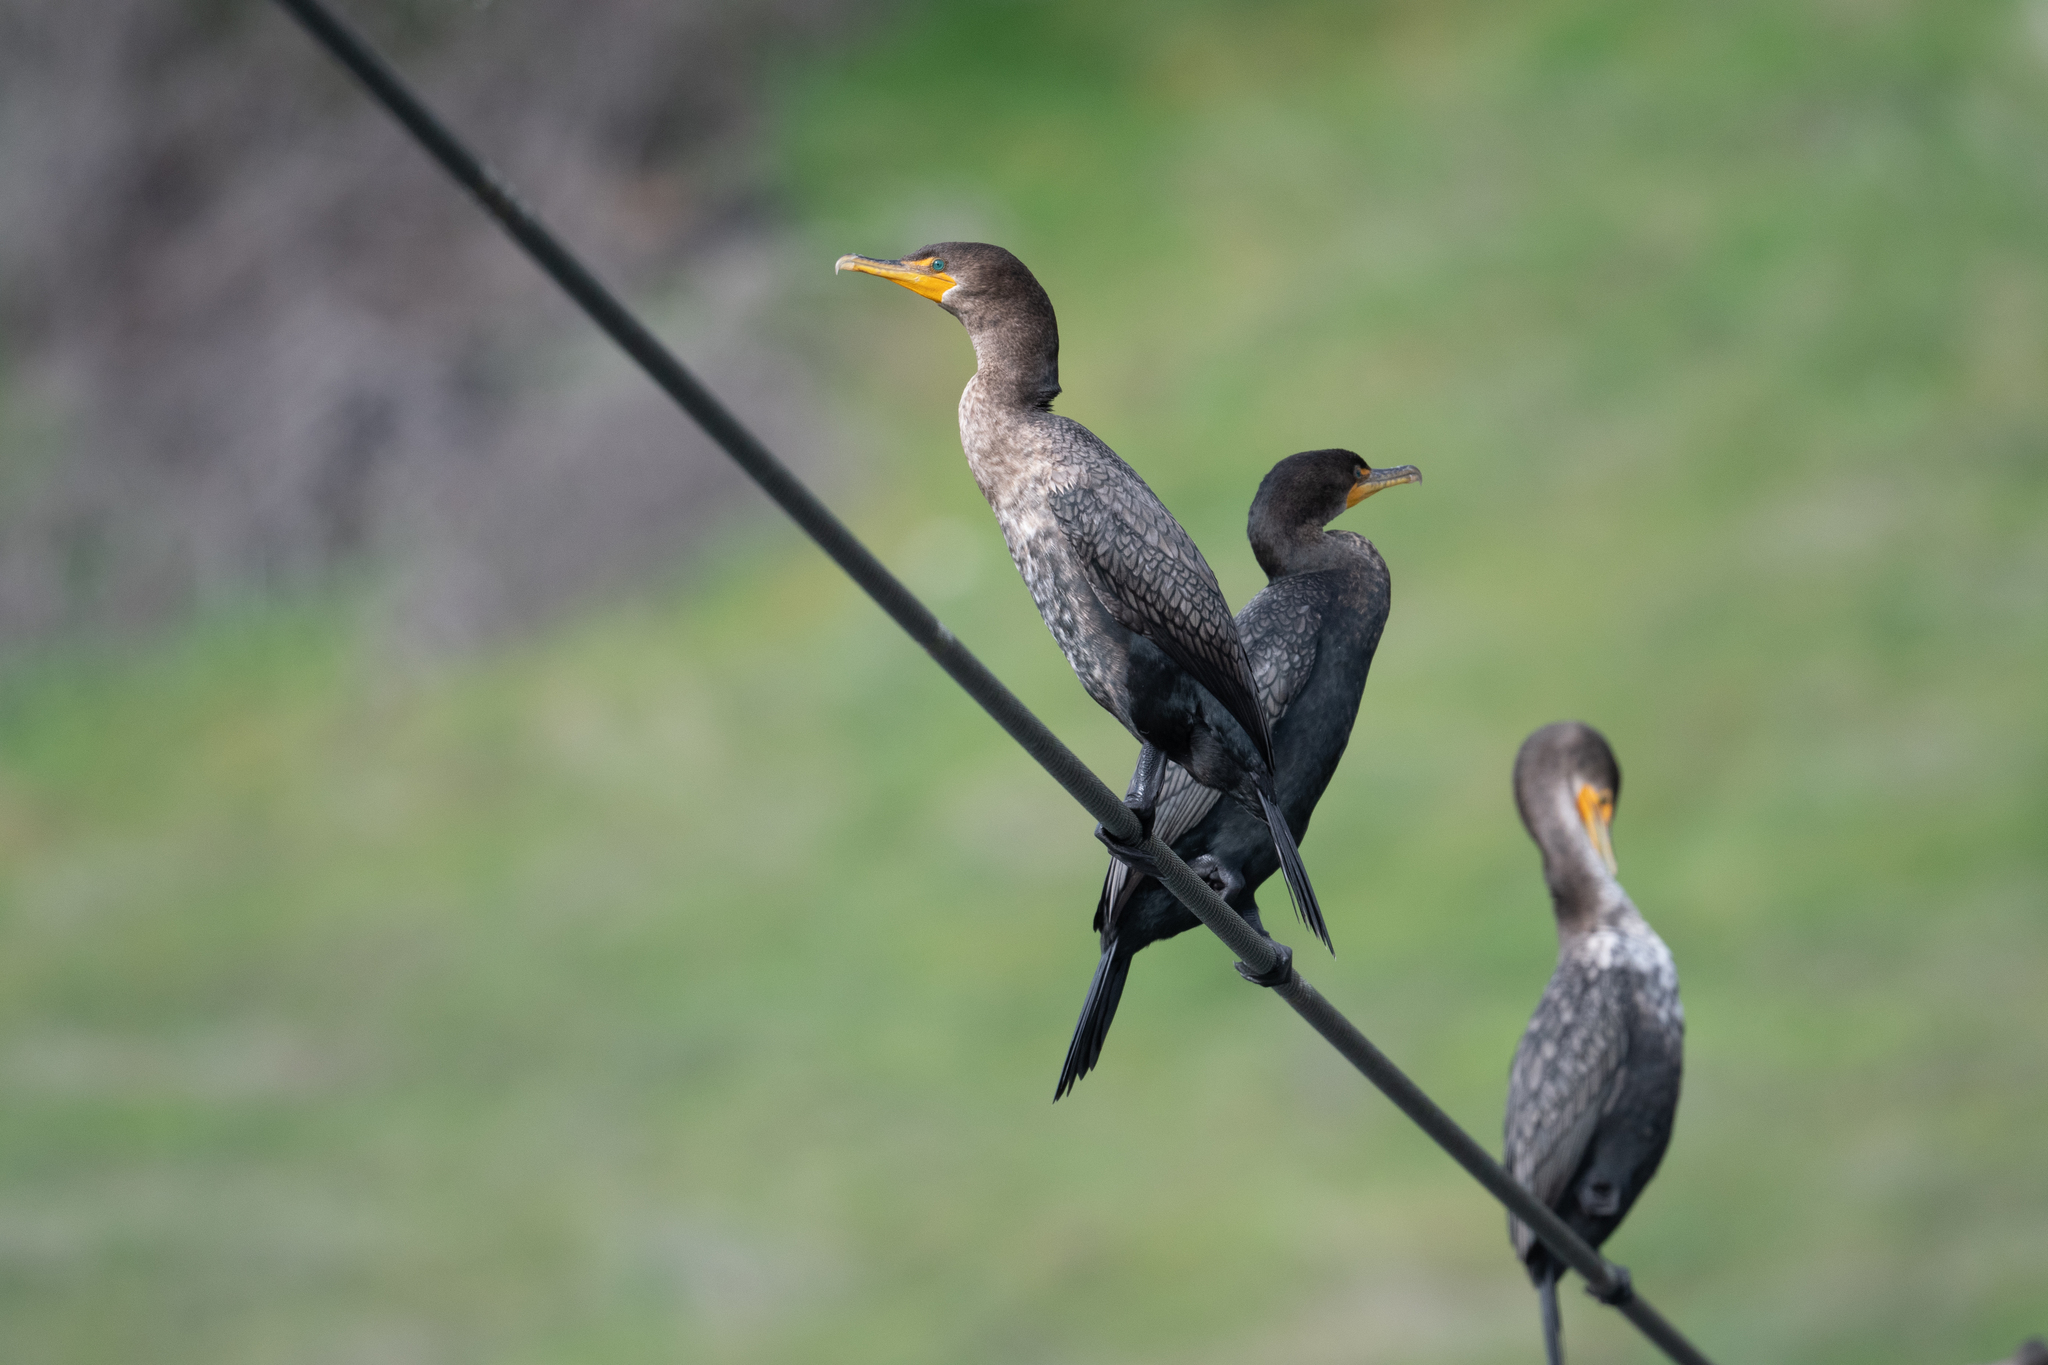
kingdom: Animalia
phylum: Chordata
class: Aves
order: Suliformes
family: Phalacrocoracidae
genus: Phalacrocorax
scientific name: Phalacrocorax auritus
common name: Double-crested cormorant
